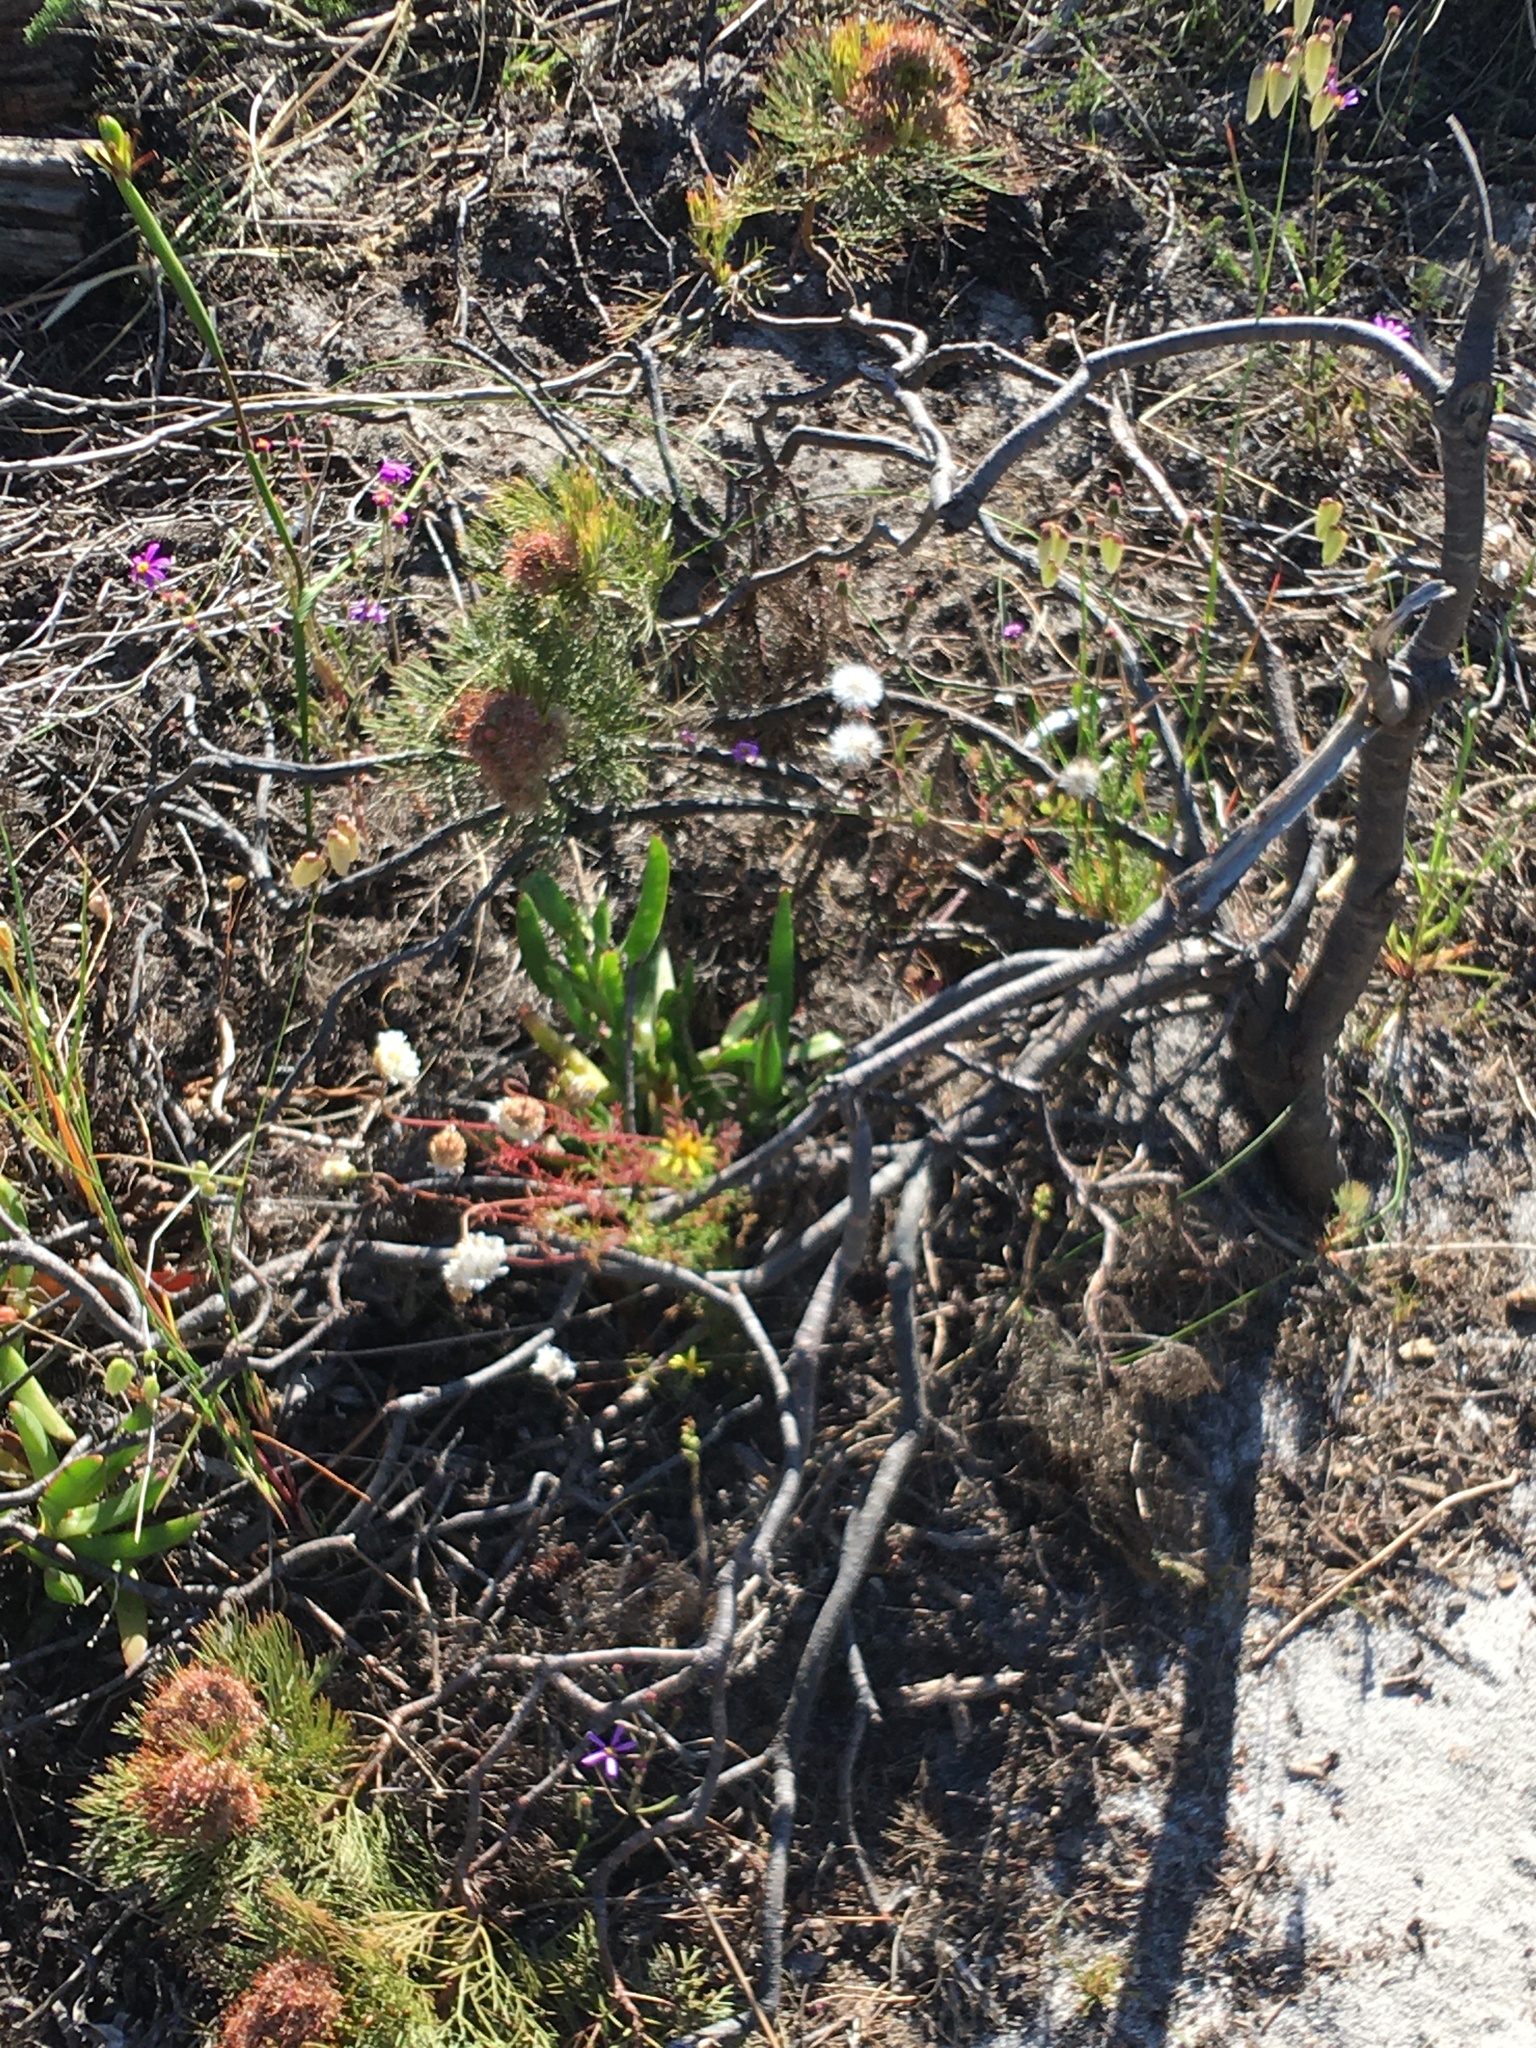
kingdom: Plantae
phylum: Tracheophyta
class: Magnoliopsida
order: Proteales
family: Proteaceae
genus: Serruria
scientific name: Serruria glomerata
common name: Cluster spiderhead
